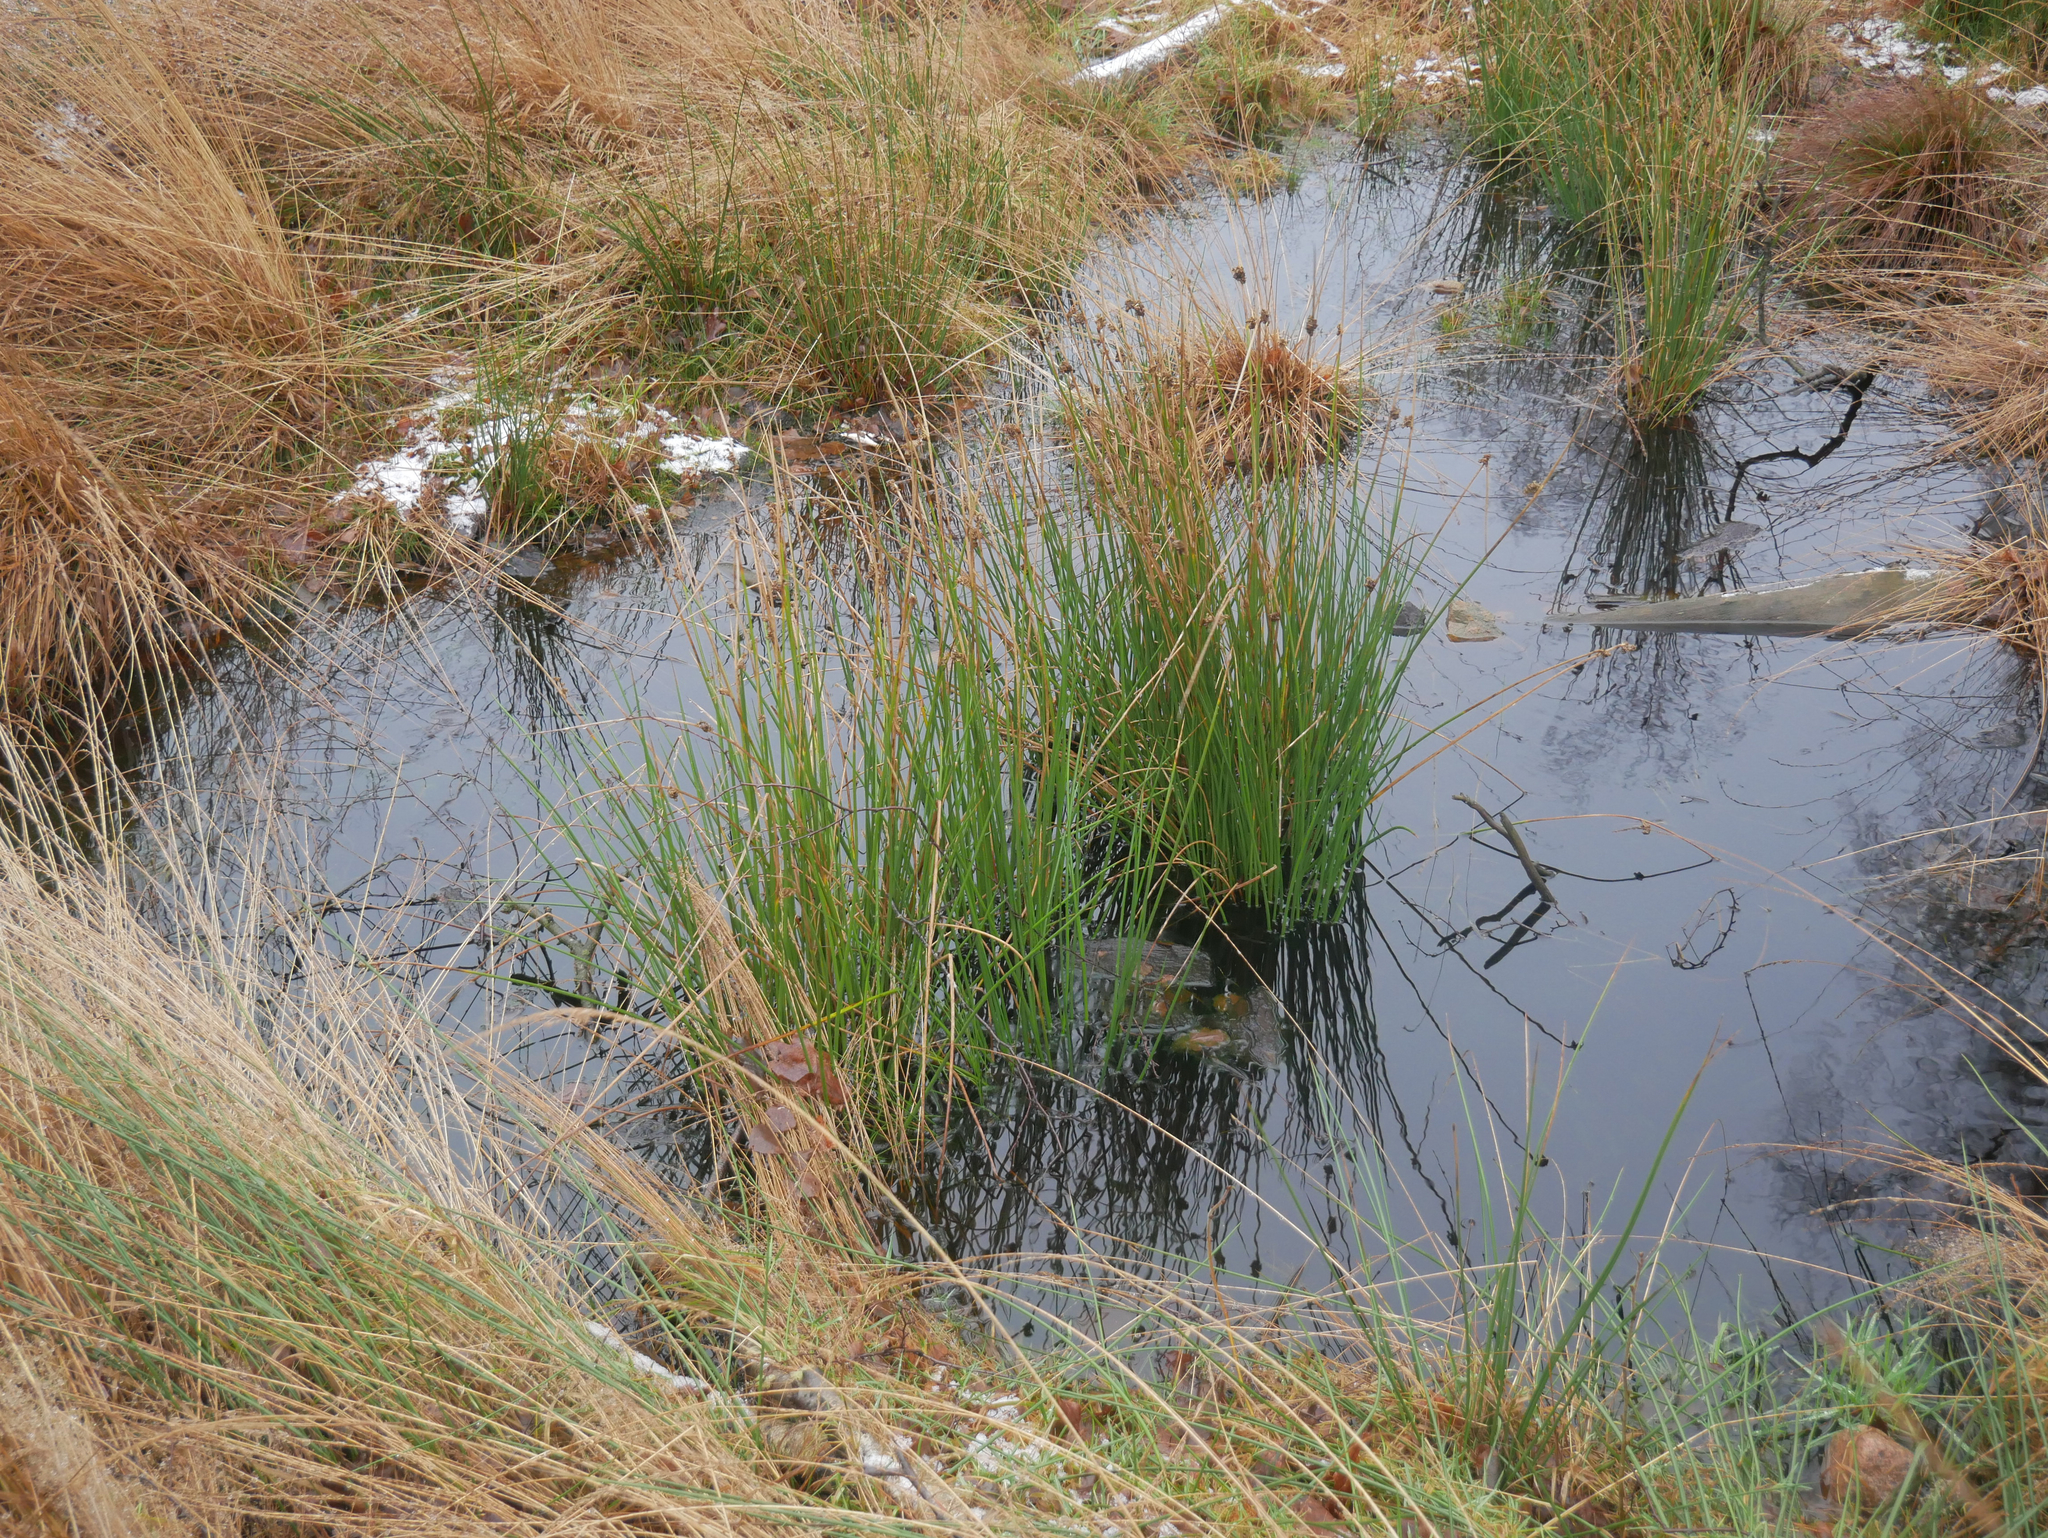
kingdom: Plantae
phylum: Tracheophyta
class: Liliopsida
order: Poales
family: Juncaceae
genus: Juncus
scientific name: Juncus effusus
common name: Soft rush
